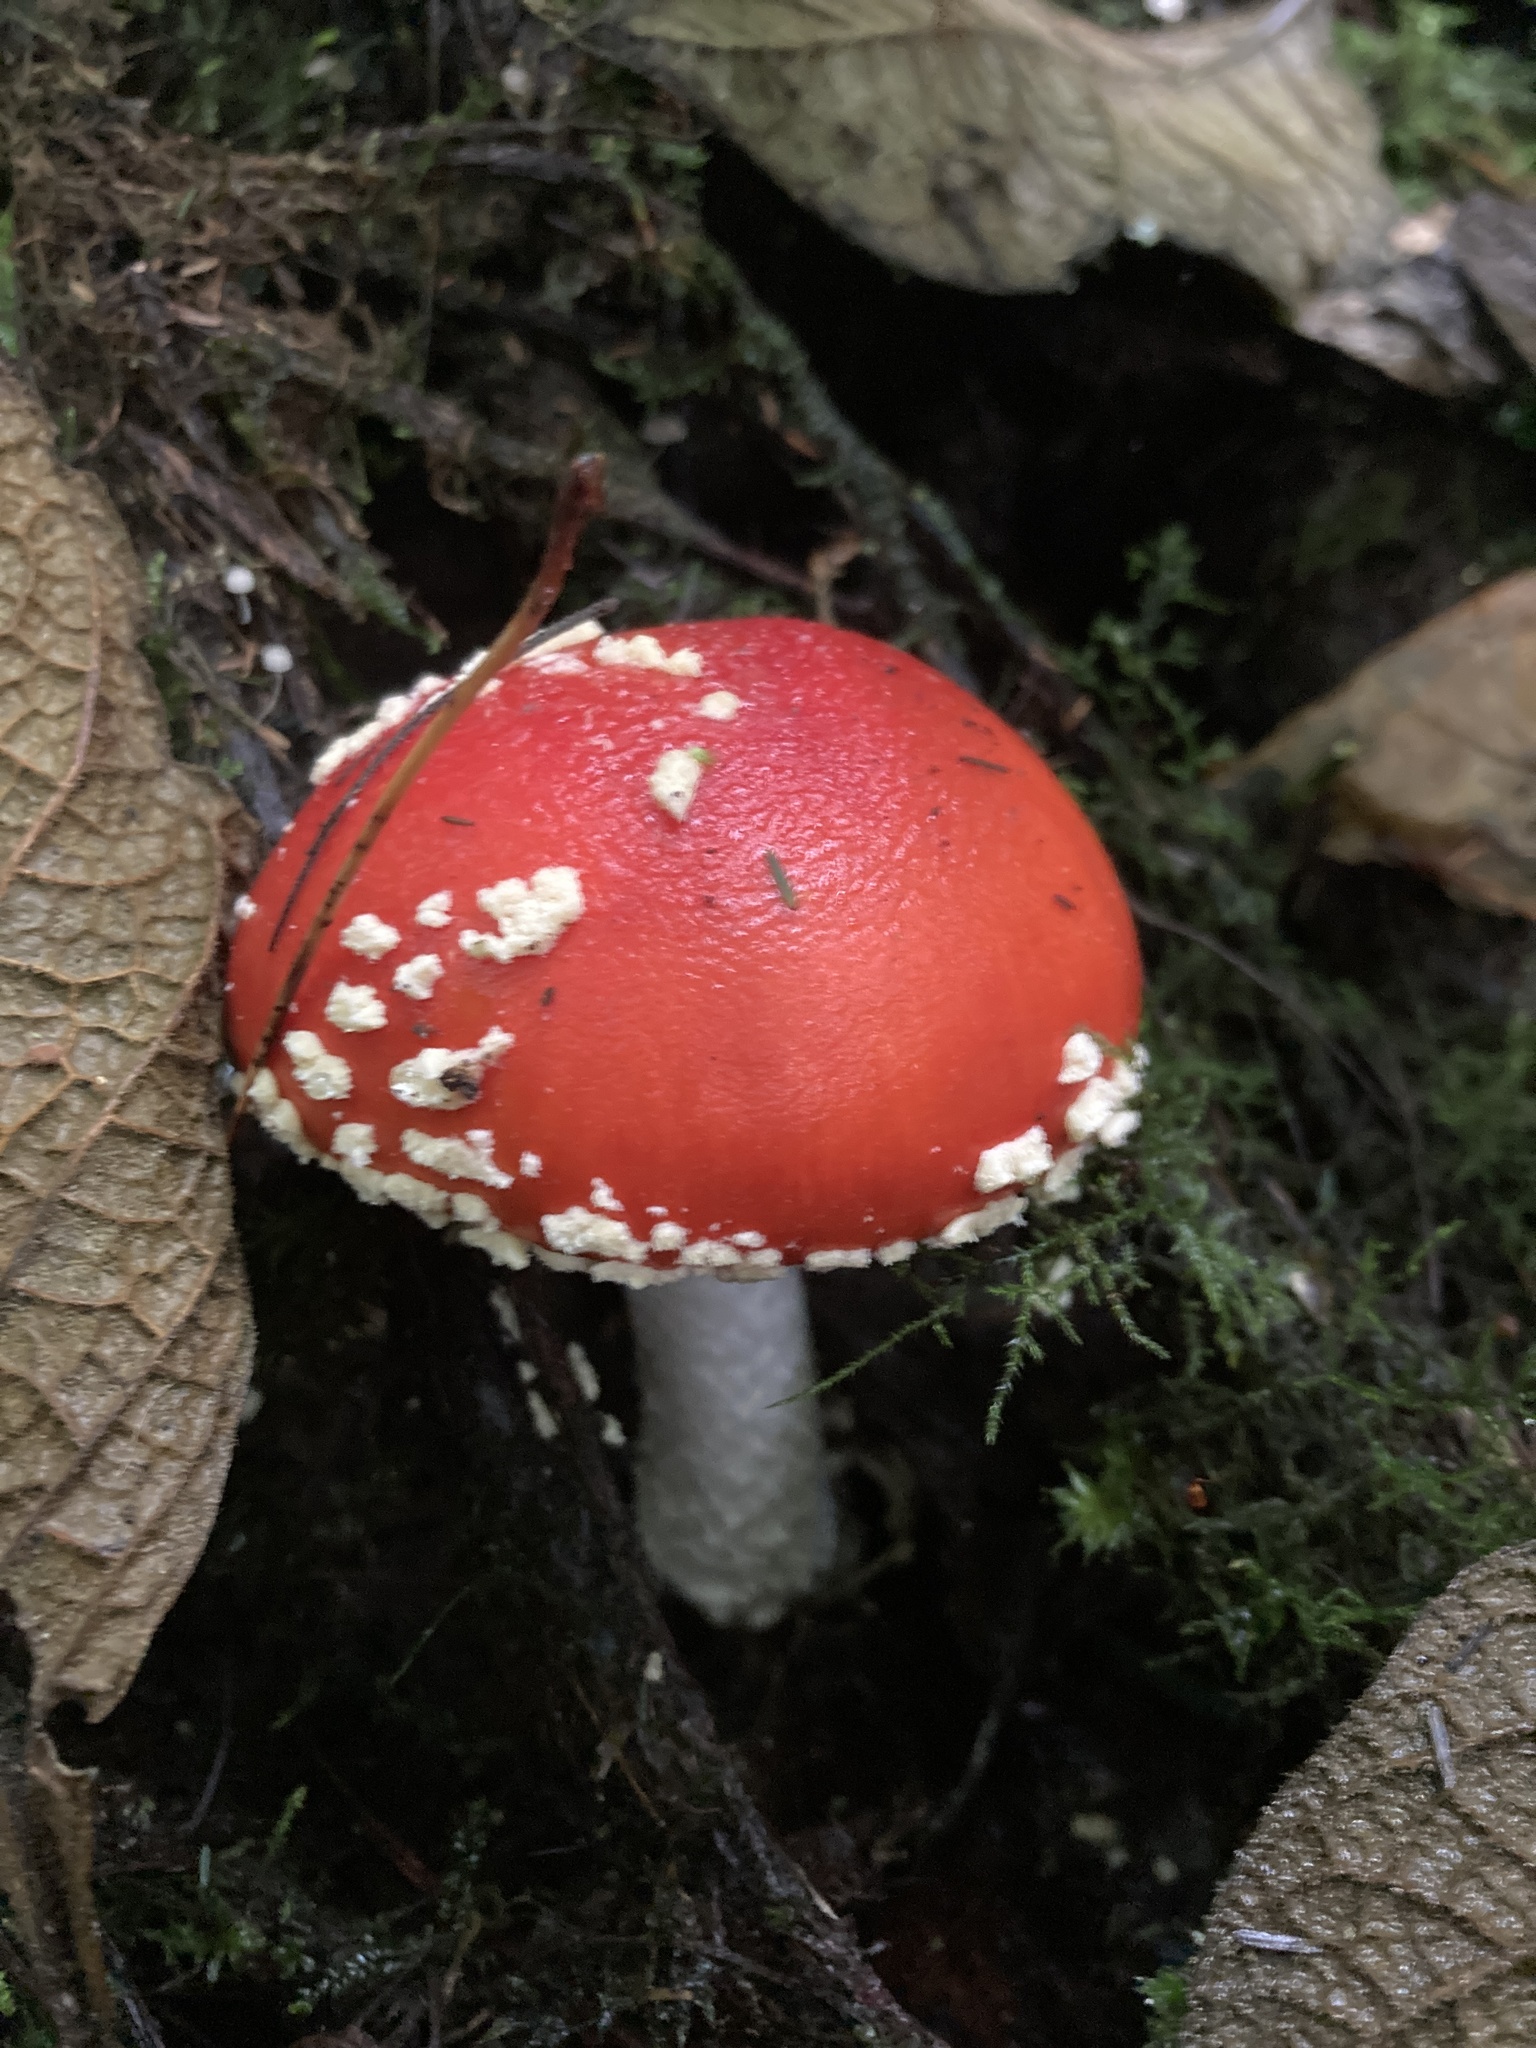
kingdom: Fungi
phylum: Basidiomycota
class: Agaricomycetes
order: Agaricales
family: Amanitaceae
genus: Amanita
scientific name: Amanita muscaria
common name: Fly agaric
